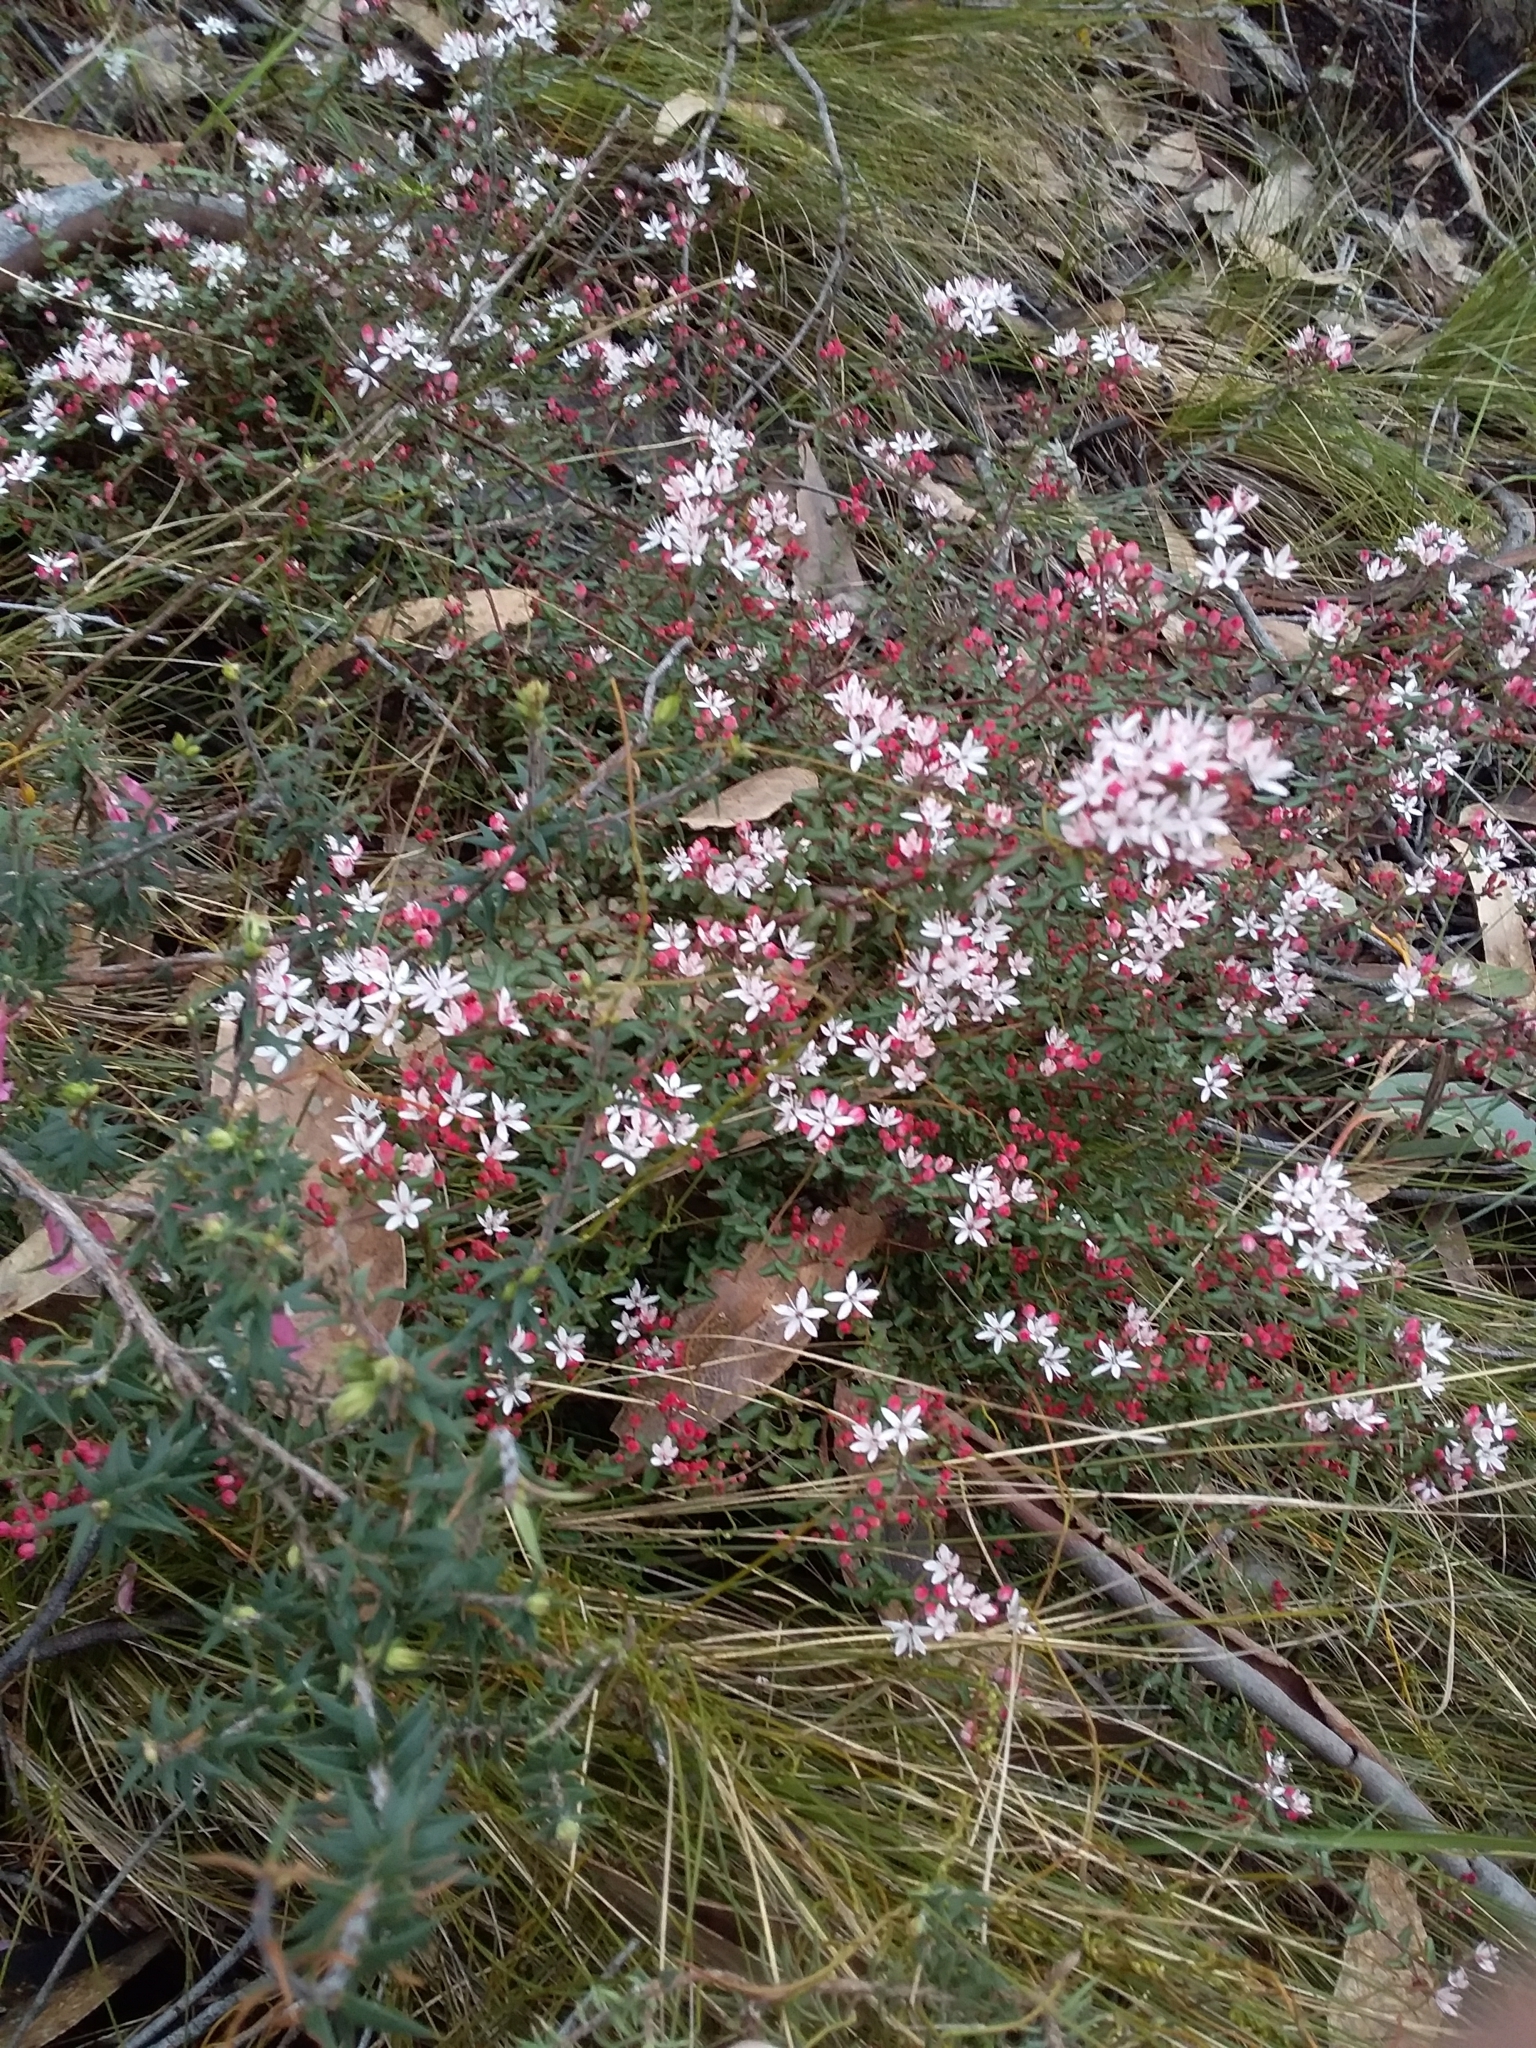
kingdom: Plantae
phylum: Tracheophyta
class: Magnoliopsida
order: Sapindales
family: Rutaceae
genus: Leionema
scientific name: Leionema hillebrandii
